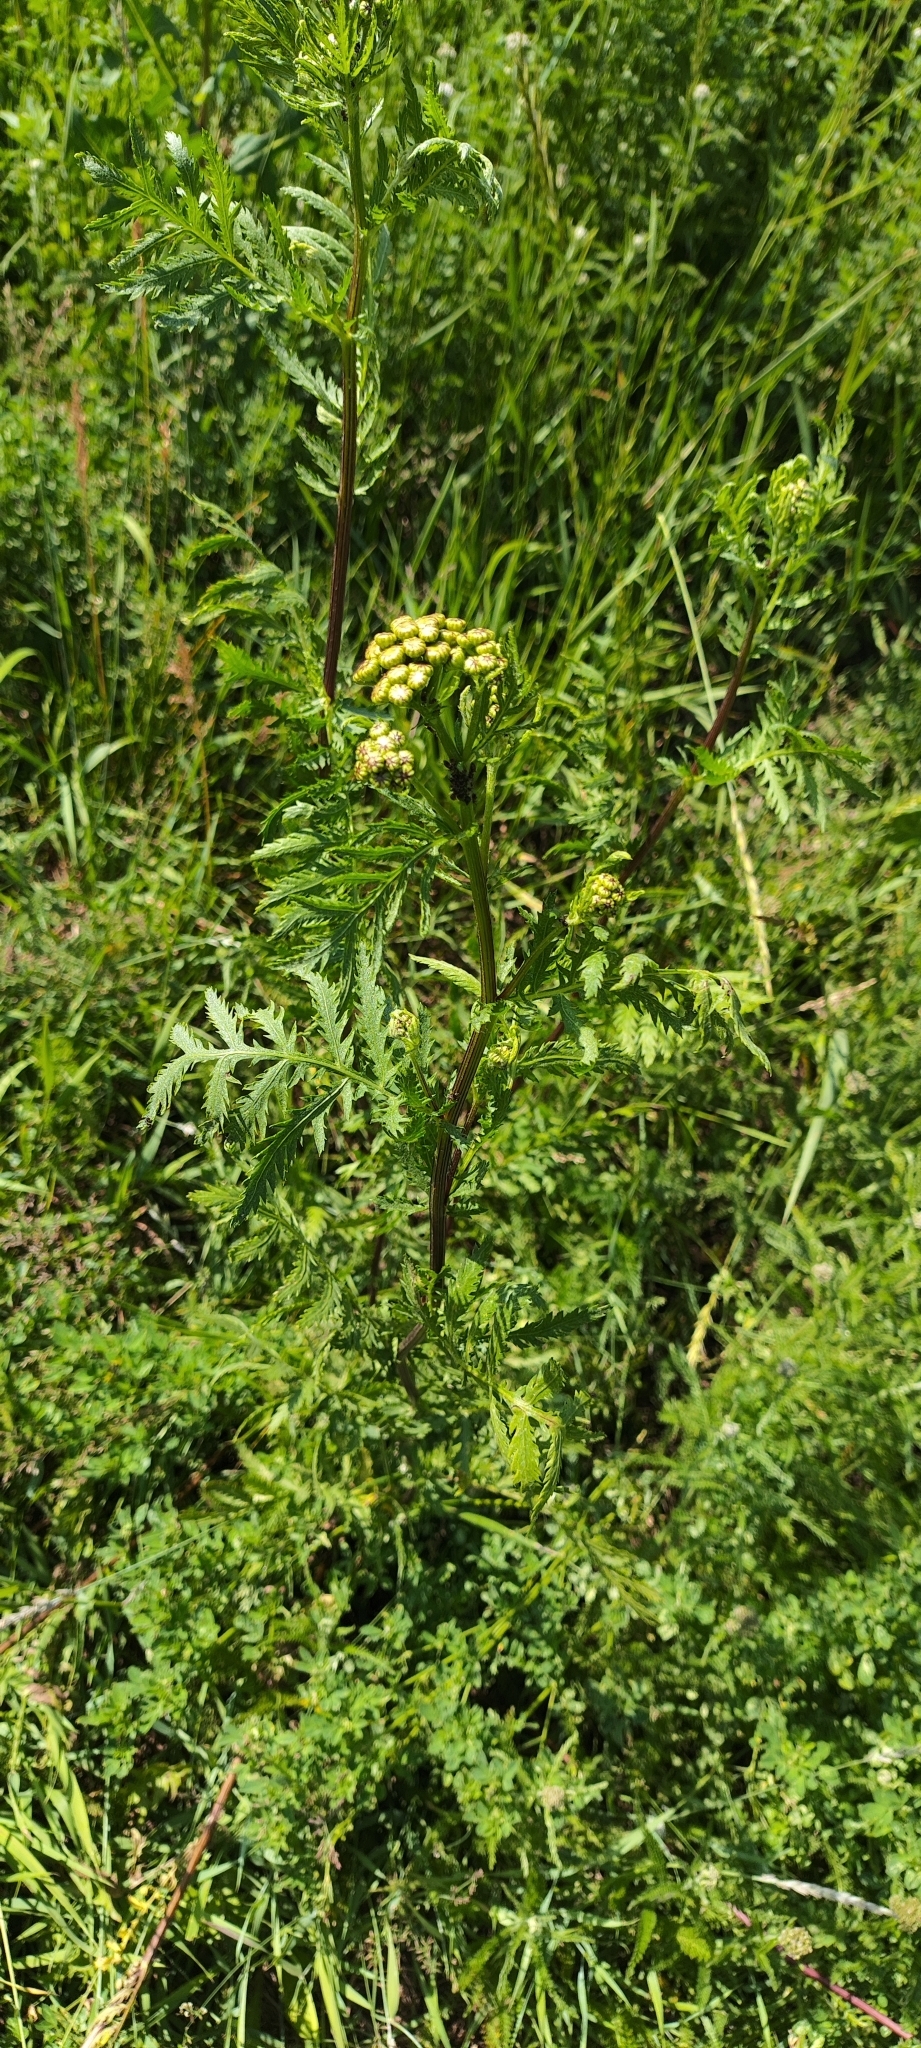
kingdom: Plantae
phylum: Tracheophyta
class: Magnoliopsida
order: Asterales
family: Asteraceae
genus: Tanacetum
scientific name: Tanacetum vulgare
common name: Common tansy
